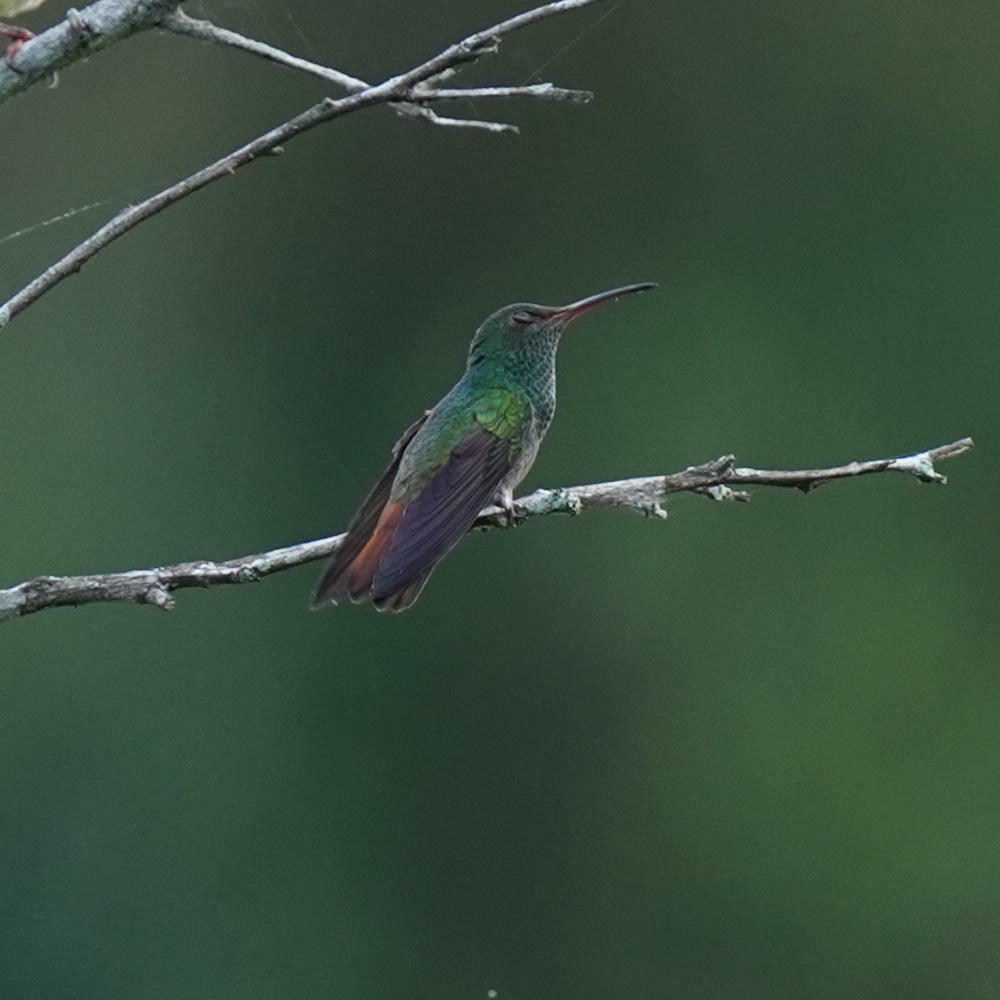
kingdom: Animalia
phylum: Chordata
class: Aves
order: Apodiformes
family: Trochilidae
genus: Amazilia
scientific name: Amazilia tzacatl
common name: Rufous-tailed hummingbird
